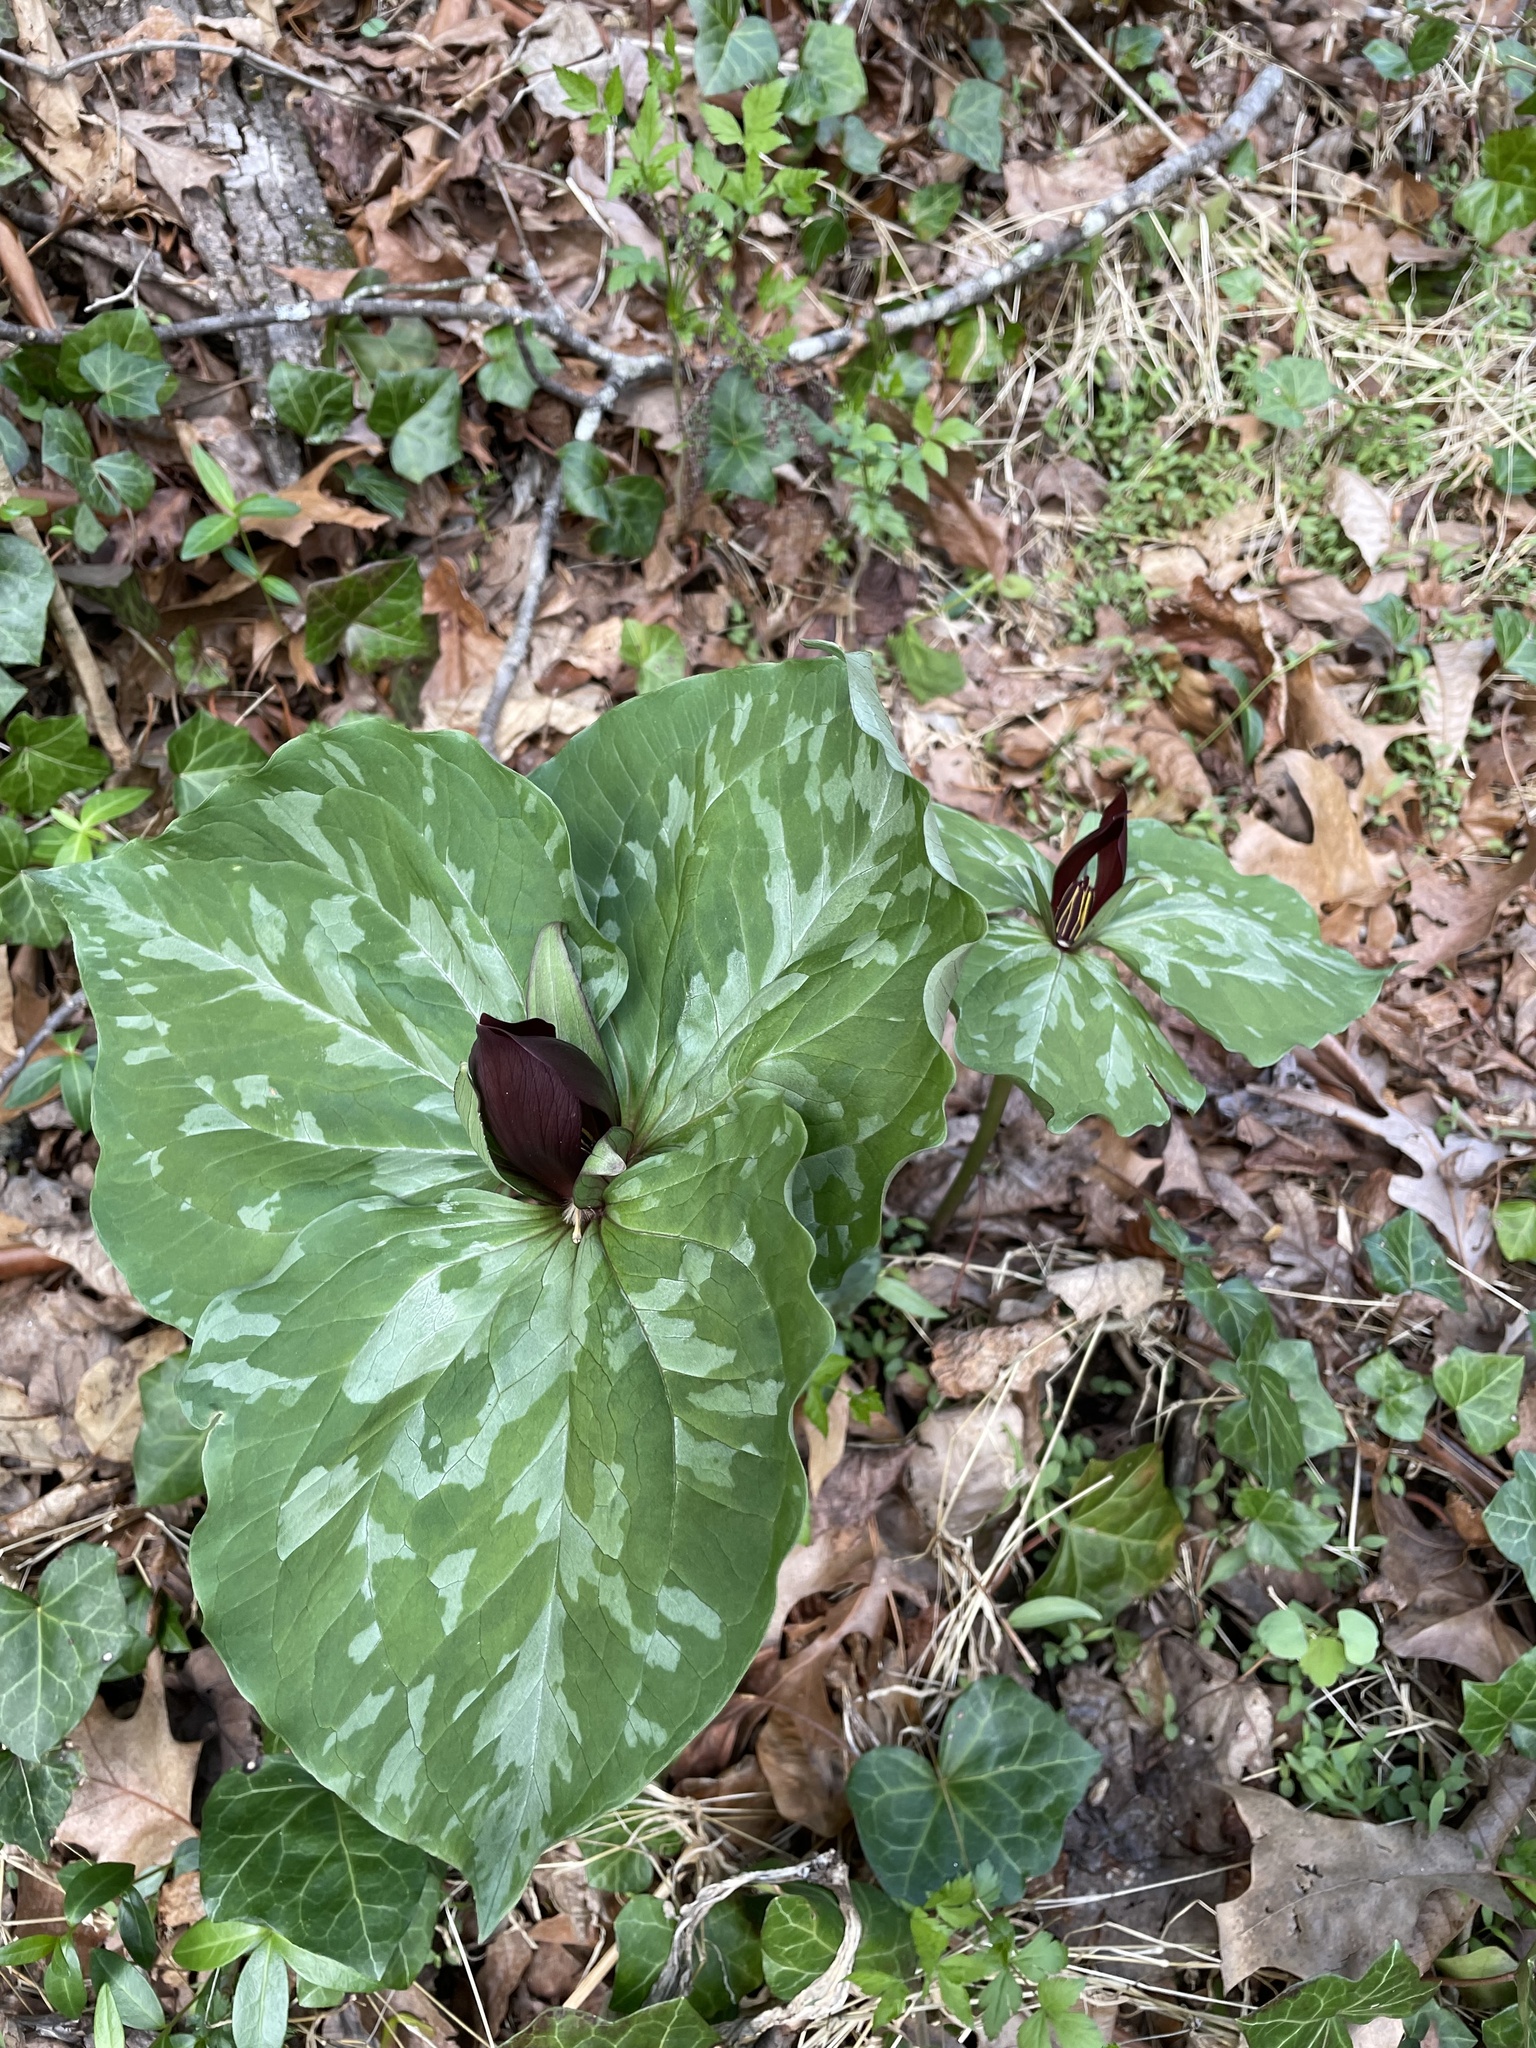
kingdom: Plantae
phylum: Tracheophyta
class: Liliopsida
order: Liliales
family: Melanthiaceae
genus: Trillium
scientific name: Trillium cuneatum
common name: Cuneate trillium
